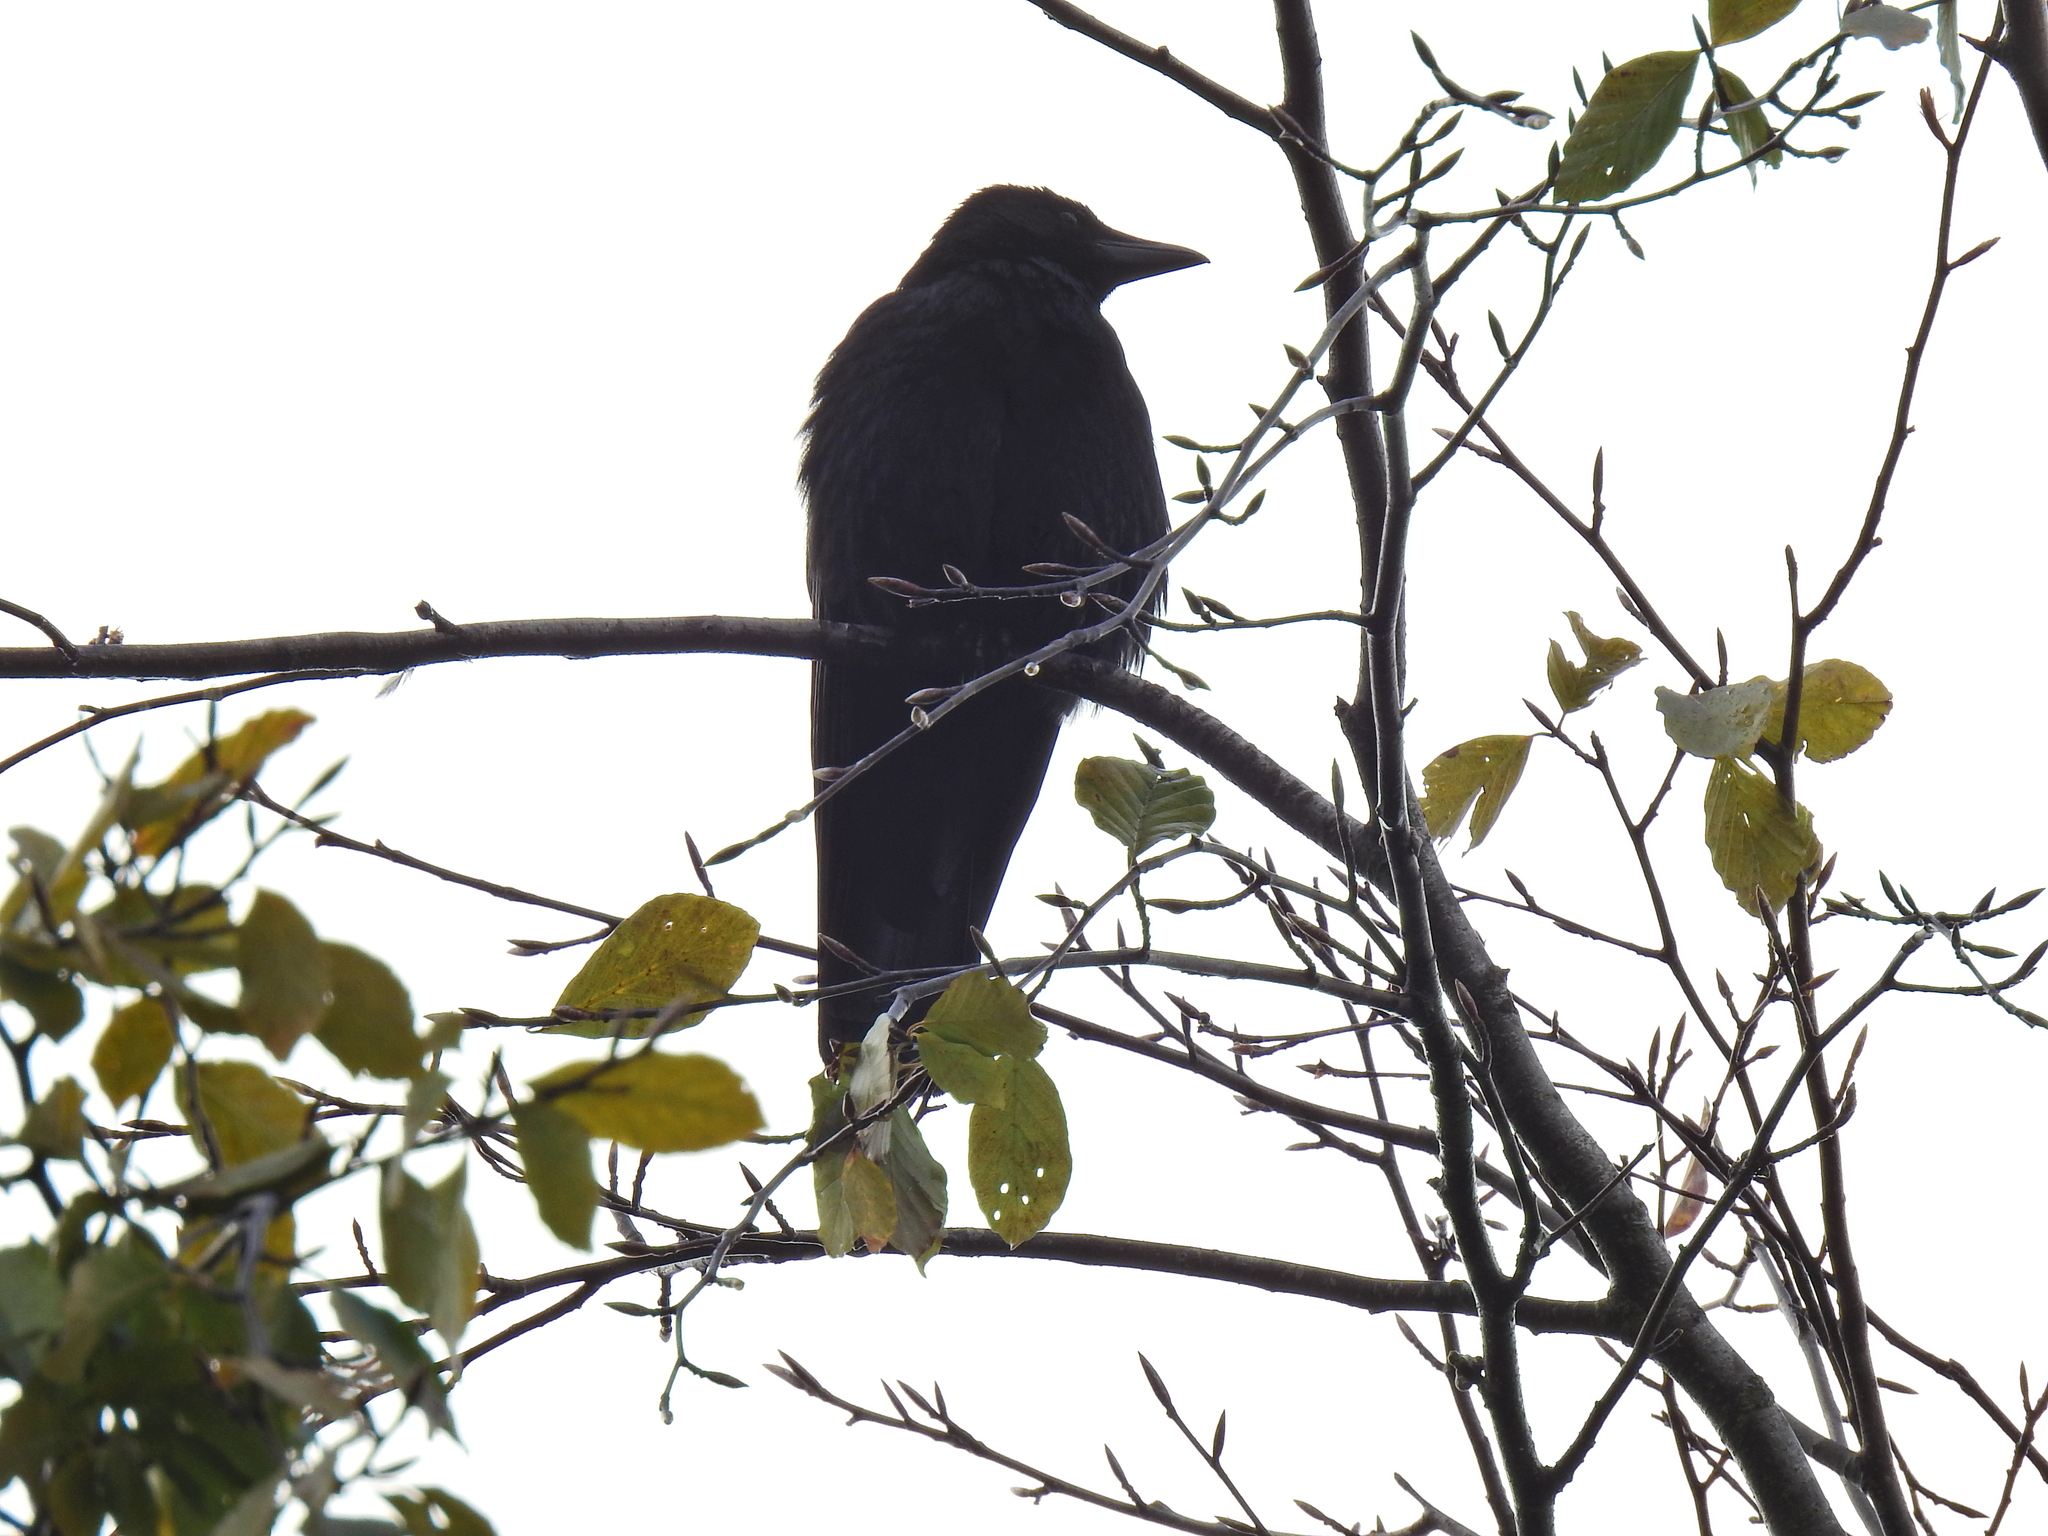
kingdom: Animalia
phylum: Chordata
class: Aves
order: Passeriformes
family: Corvidae
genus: Corvus
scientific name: Corvus corone
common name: Carrion crow
